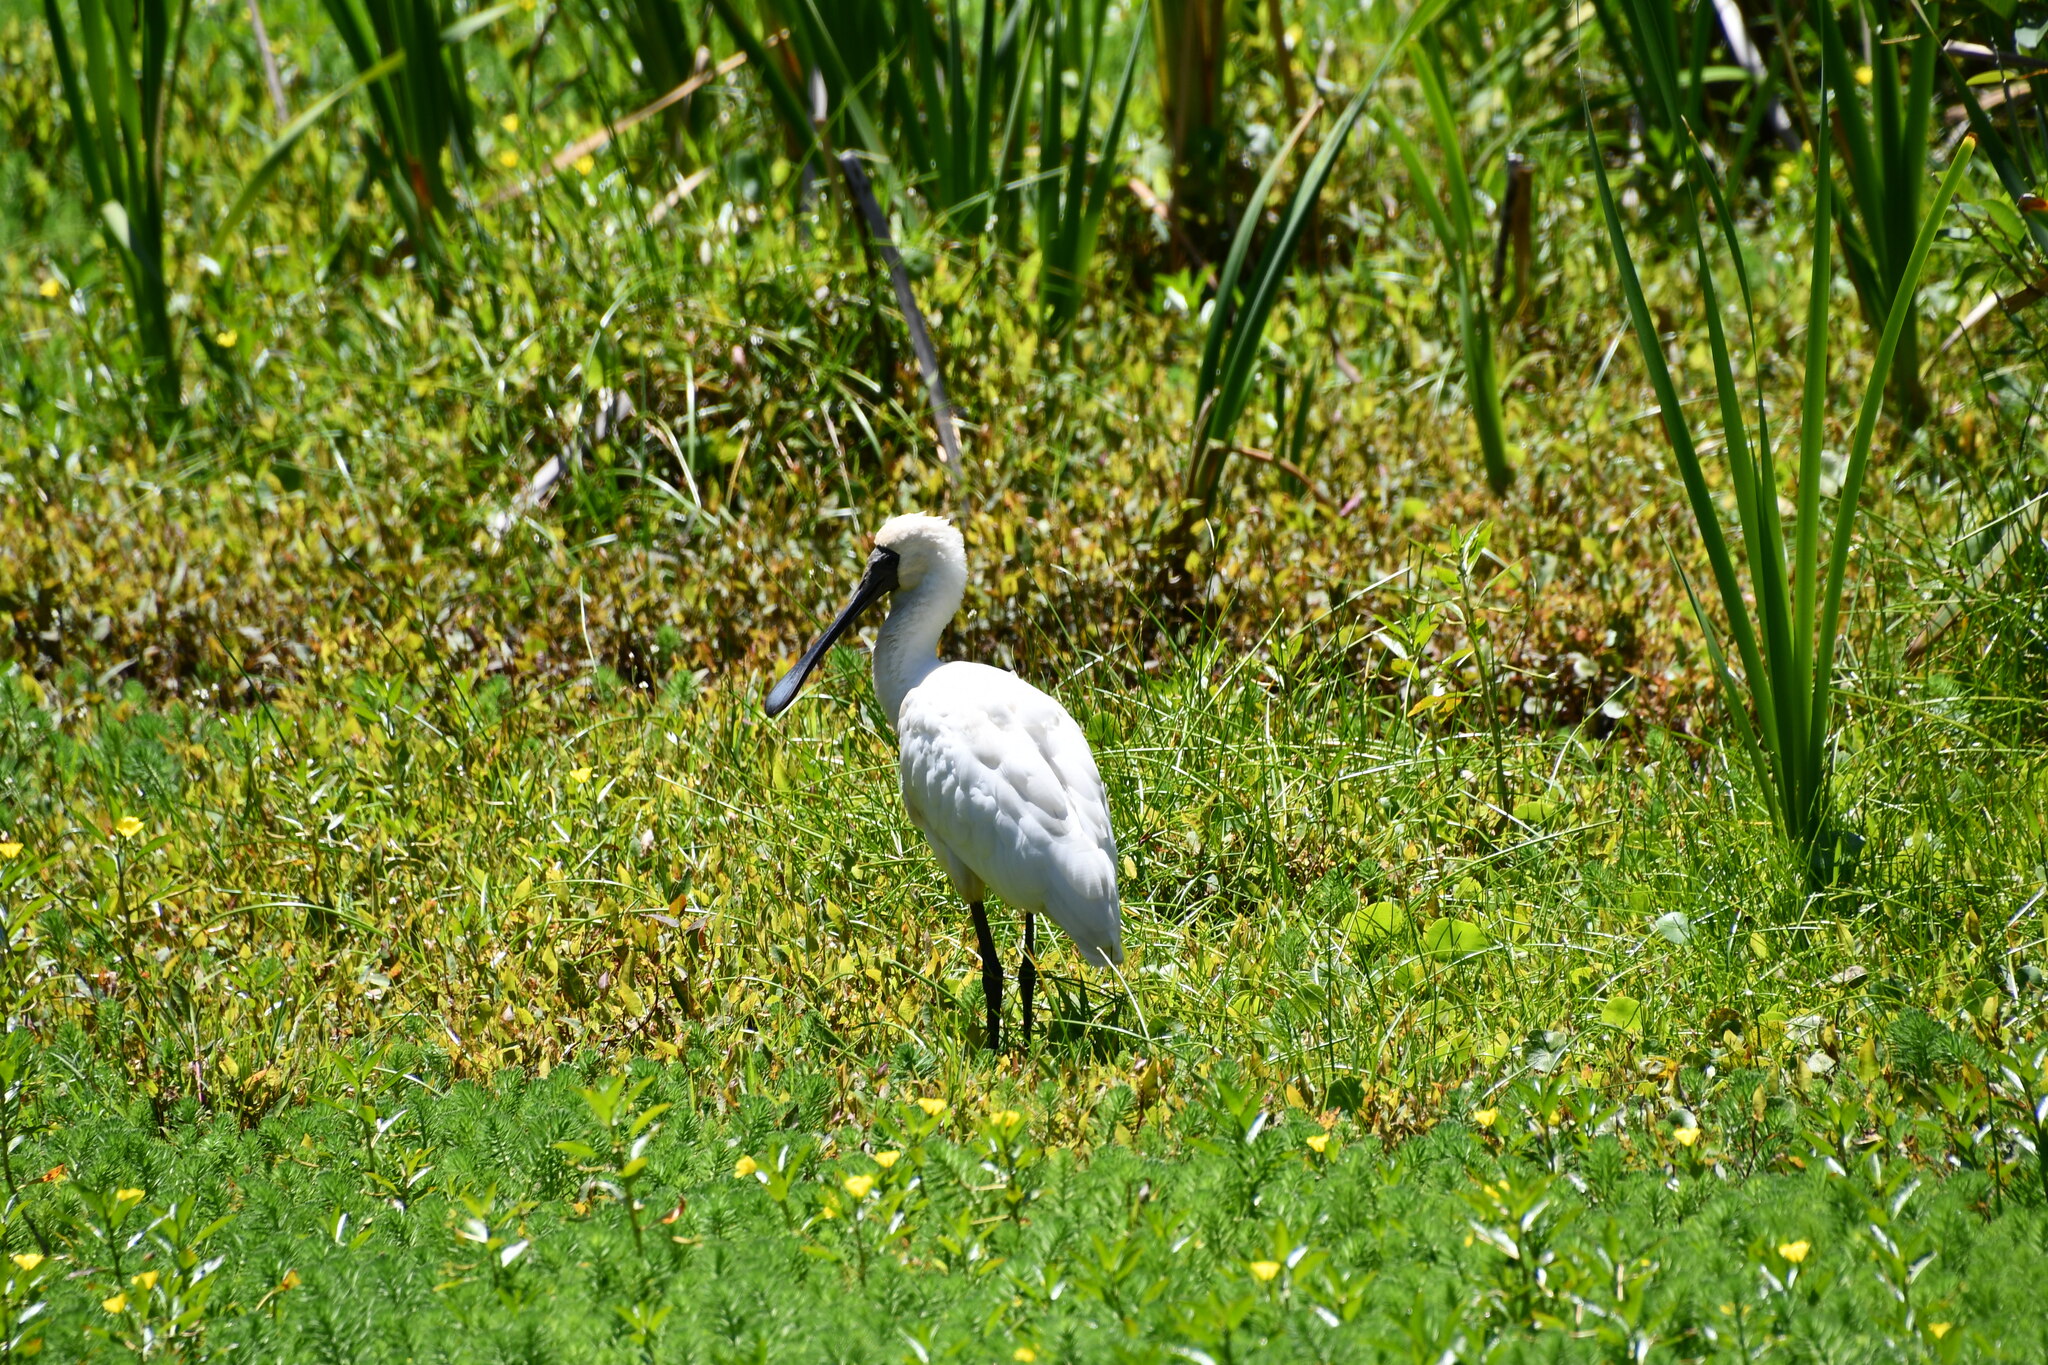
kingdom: Animalia
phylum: Chordata
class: Aves
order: Pelecaniformes
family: Threskiornithidae
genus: Platalea
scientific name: Platalea regia
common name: Royal spoonbill
